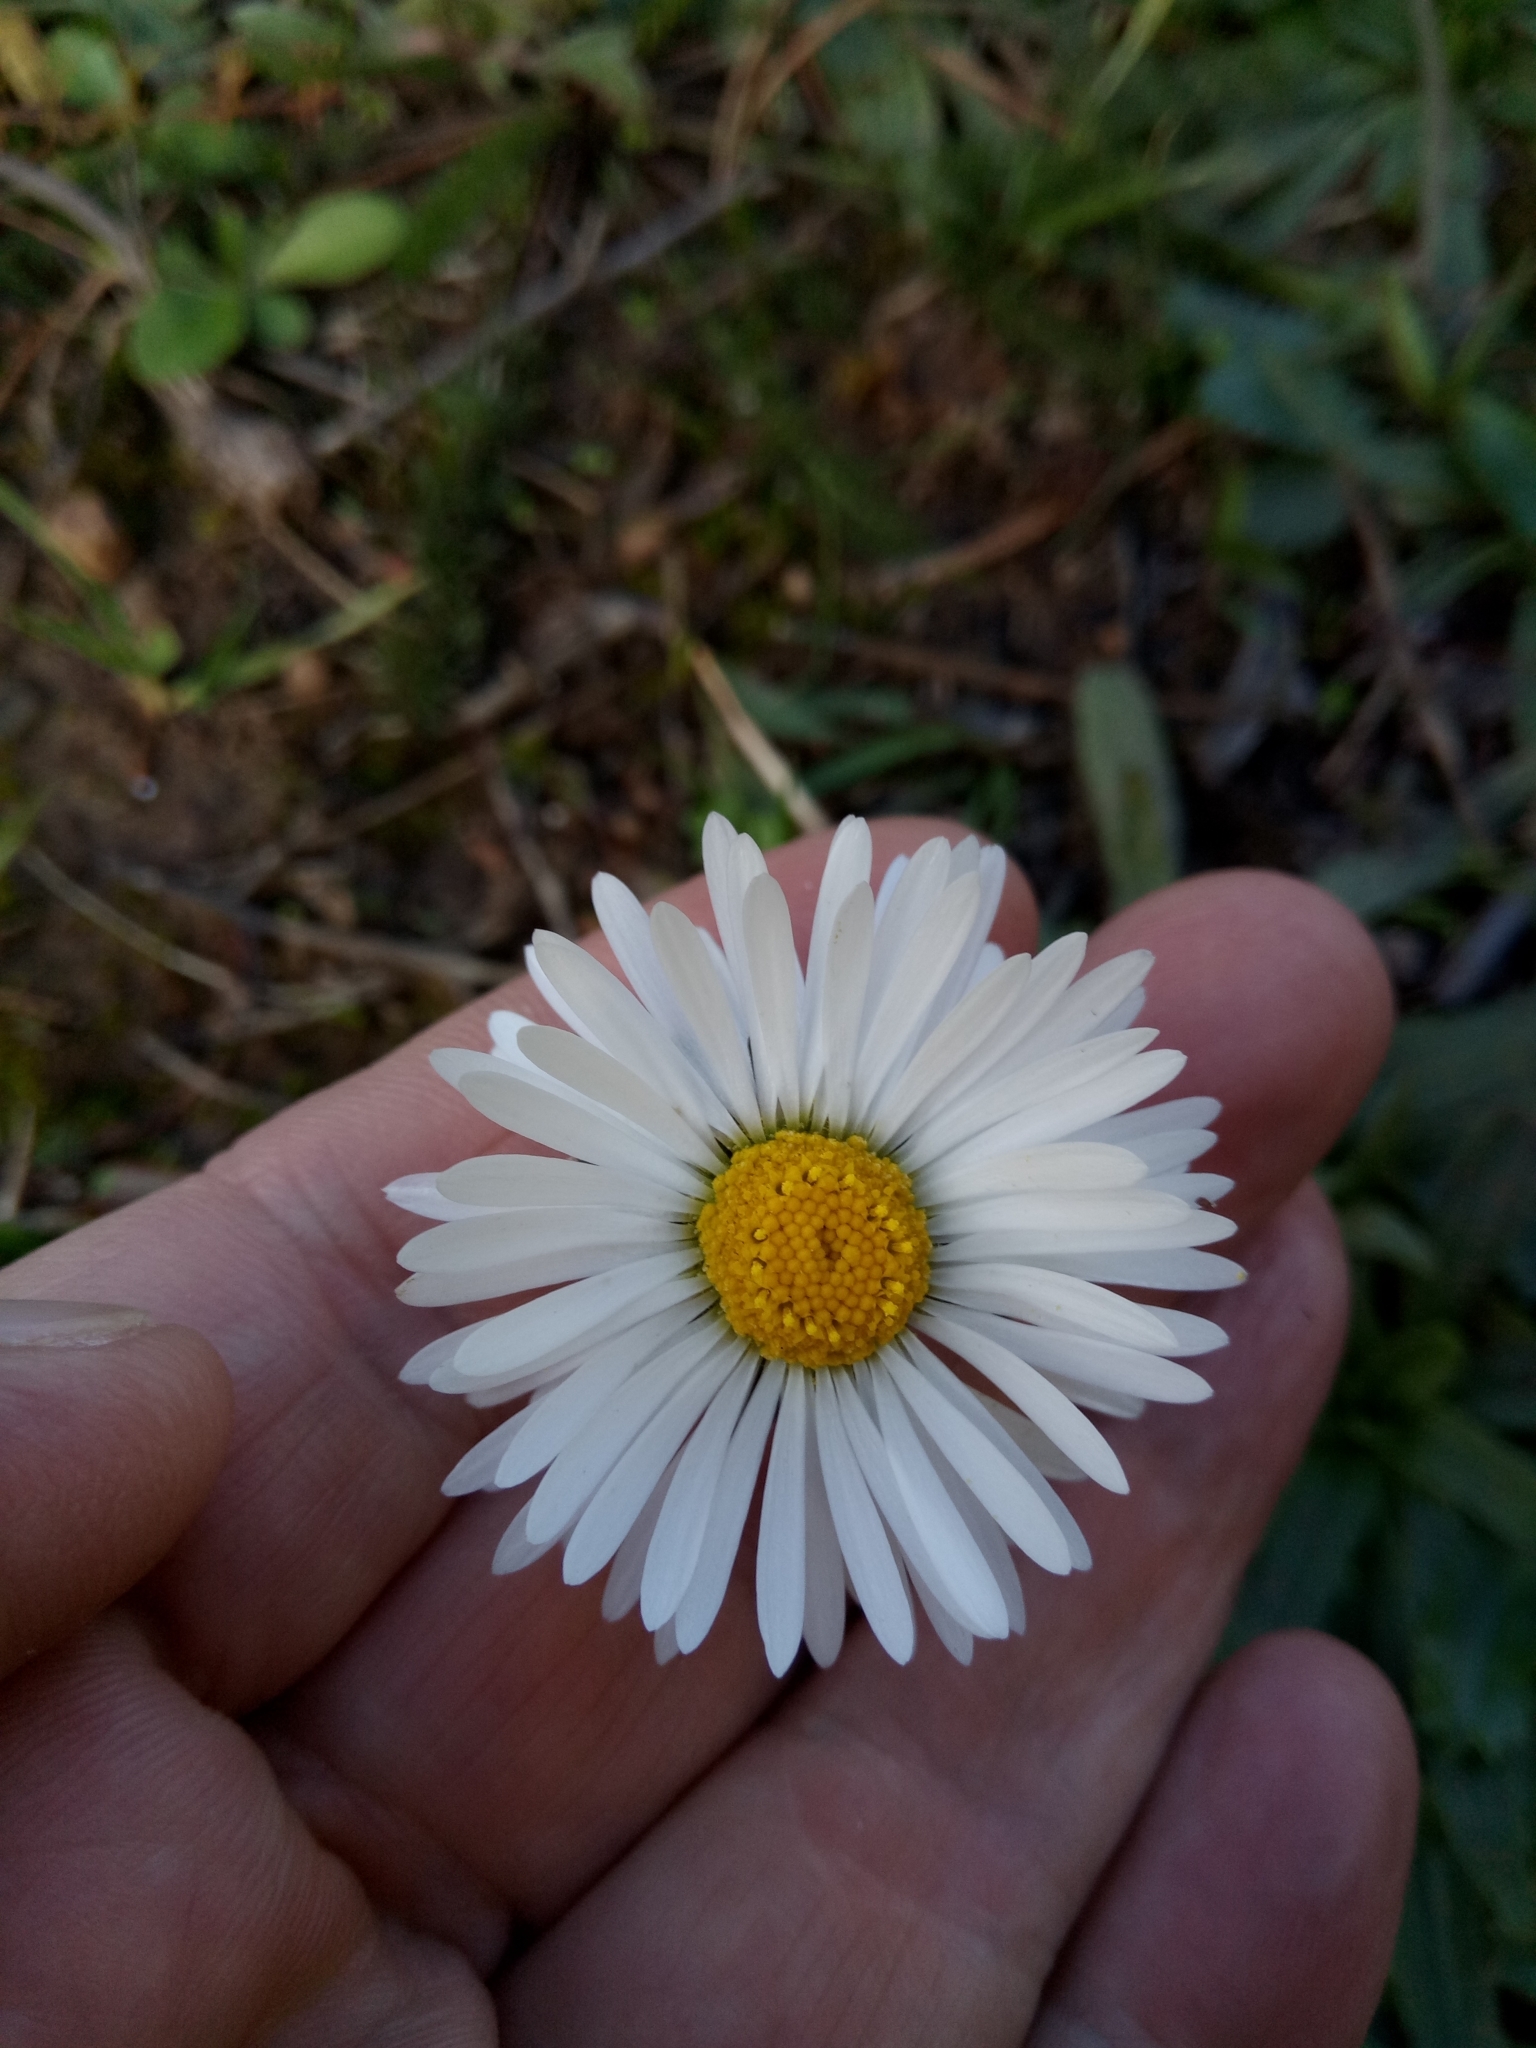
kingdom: Plantae
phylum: Tracheophyta
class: Magnoliopsida
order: Asterales
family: Asteraceae
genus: Bellis
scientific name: Bellis sylvestris
